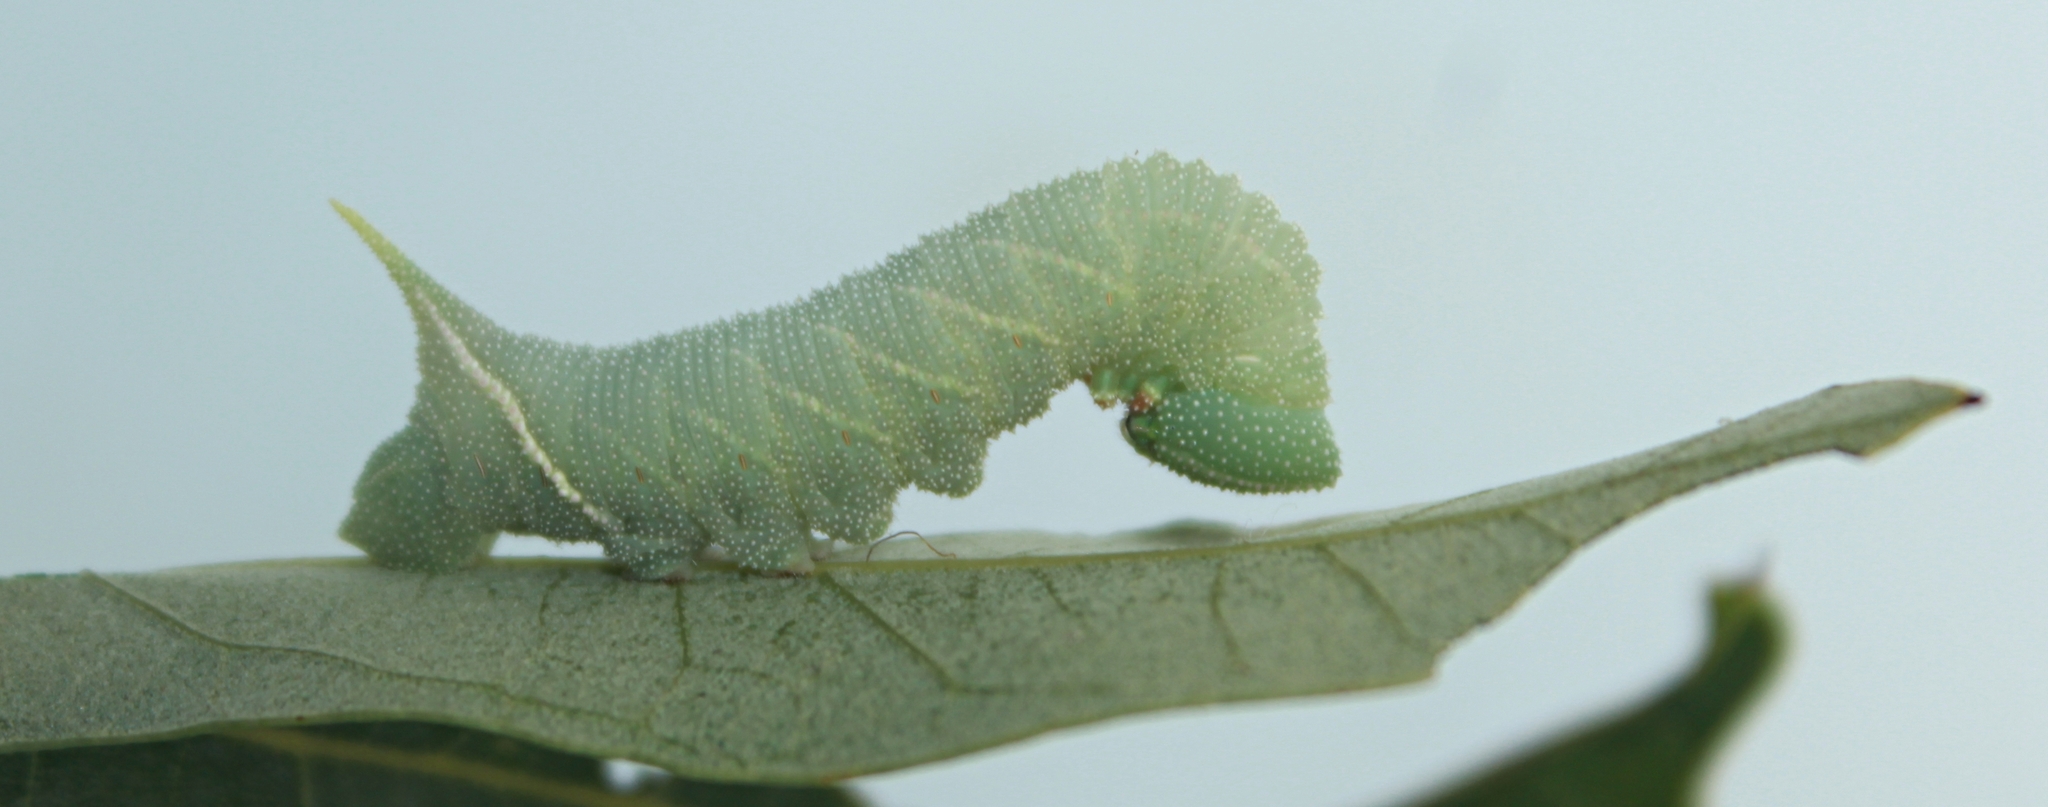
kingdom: Animalia
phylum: Arthropoda
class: Insecta
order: Lepidoptera
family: Sphingidae
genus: Paonias
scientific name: Paonias excaecata
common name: Blind-eyed sphinx
